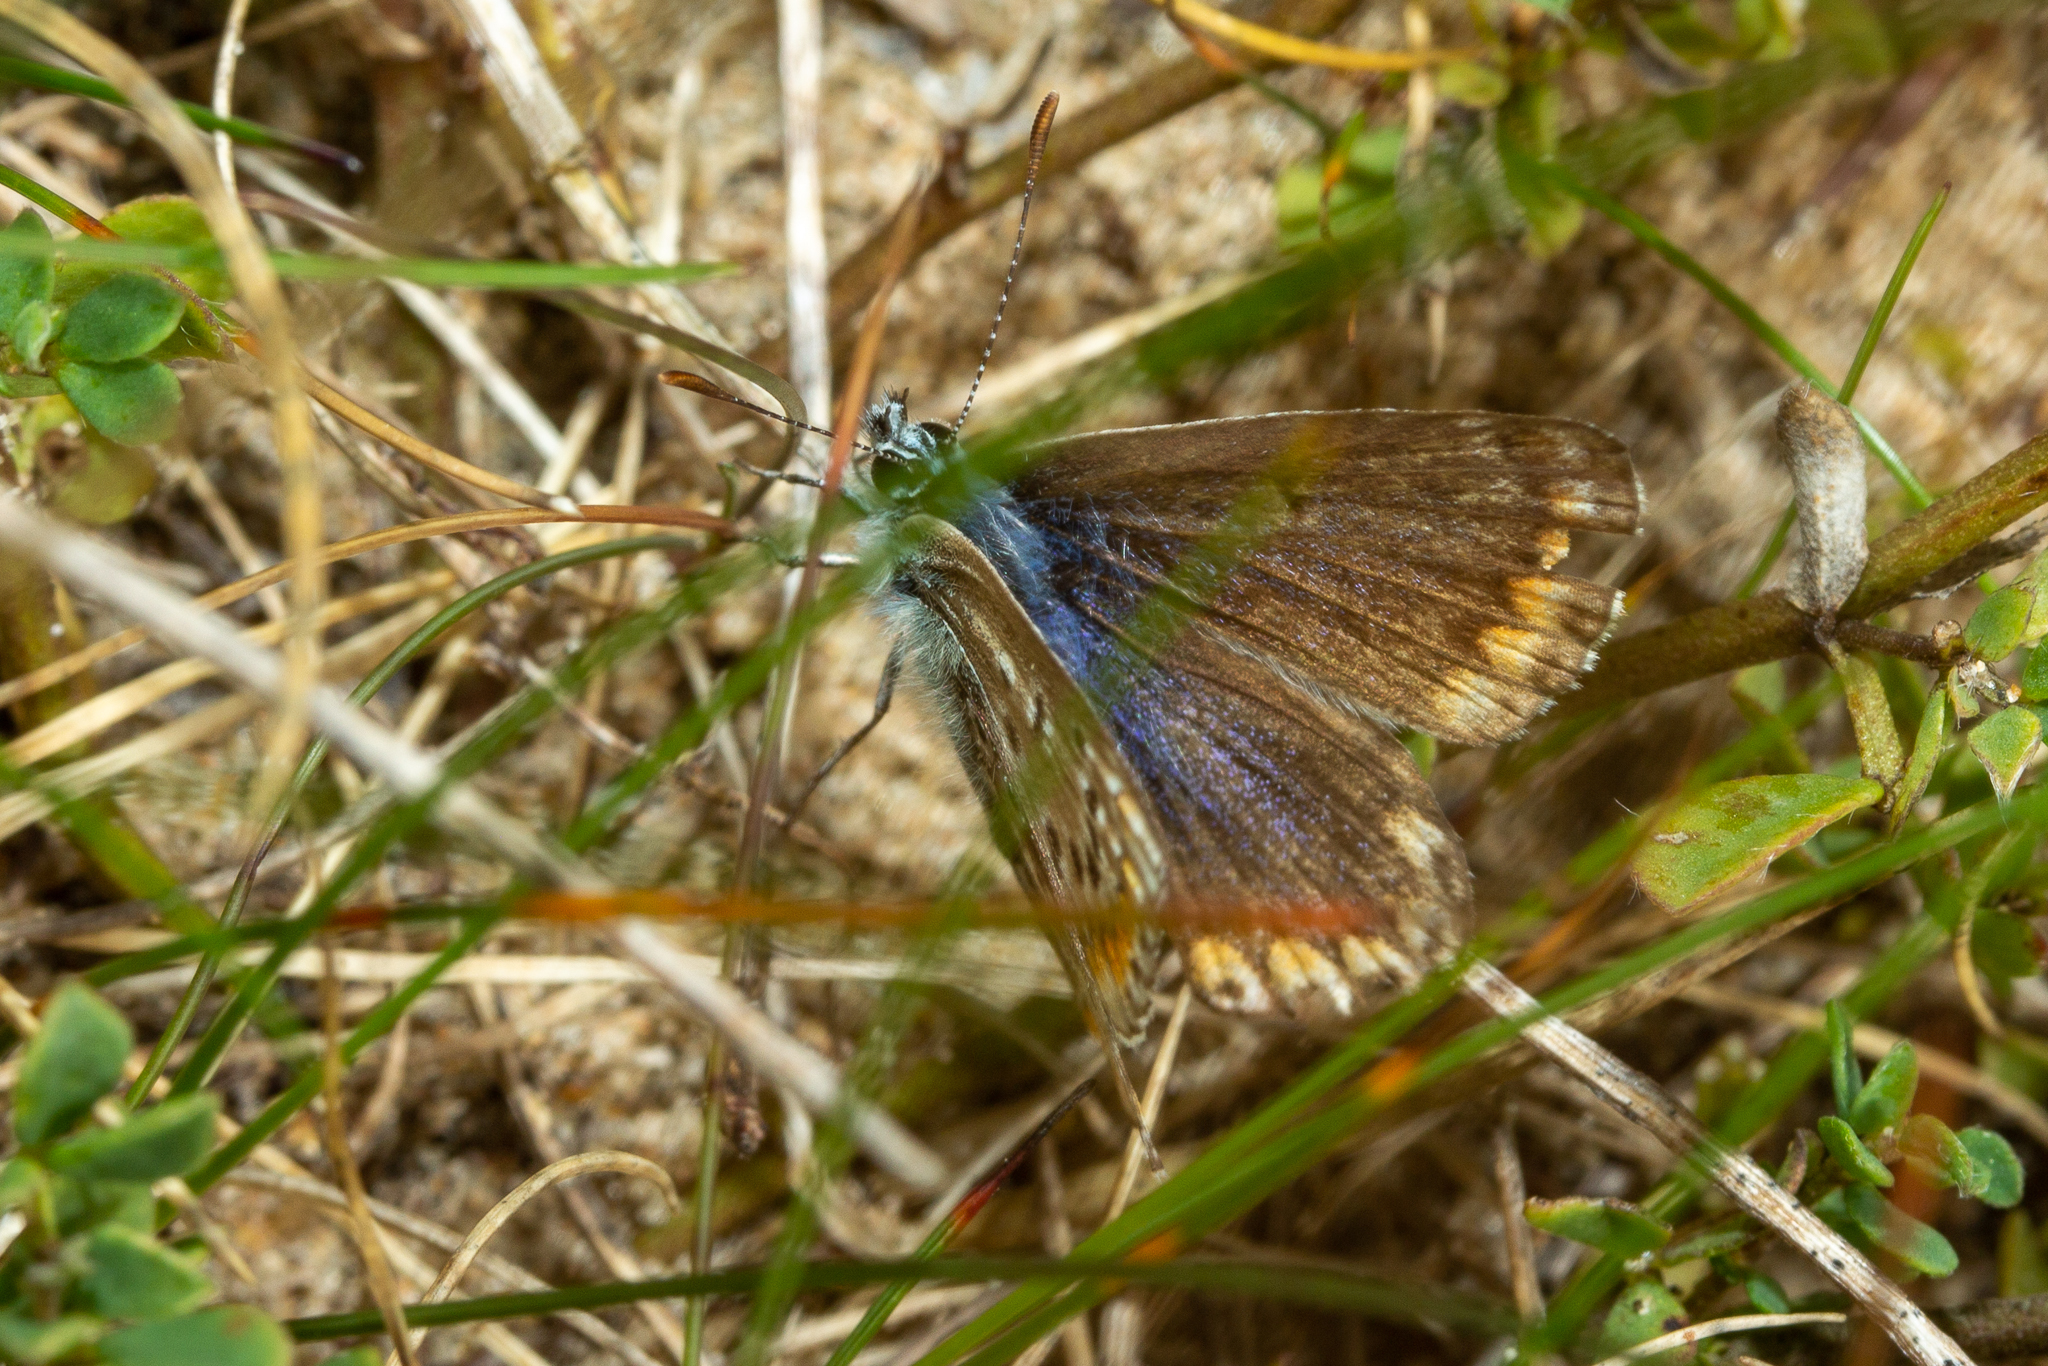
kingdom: Animalia
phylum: Arthropoda
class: Insecta
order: Lepidoptera
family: Lycaenidae
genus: Polyommatus
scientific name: Polyommatus icarus
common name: Common blue
